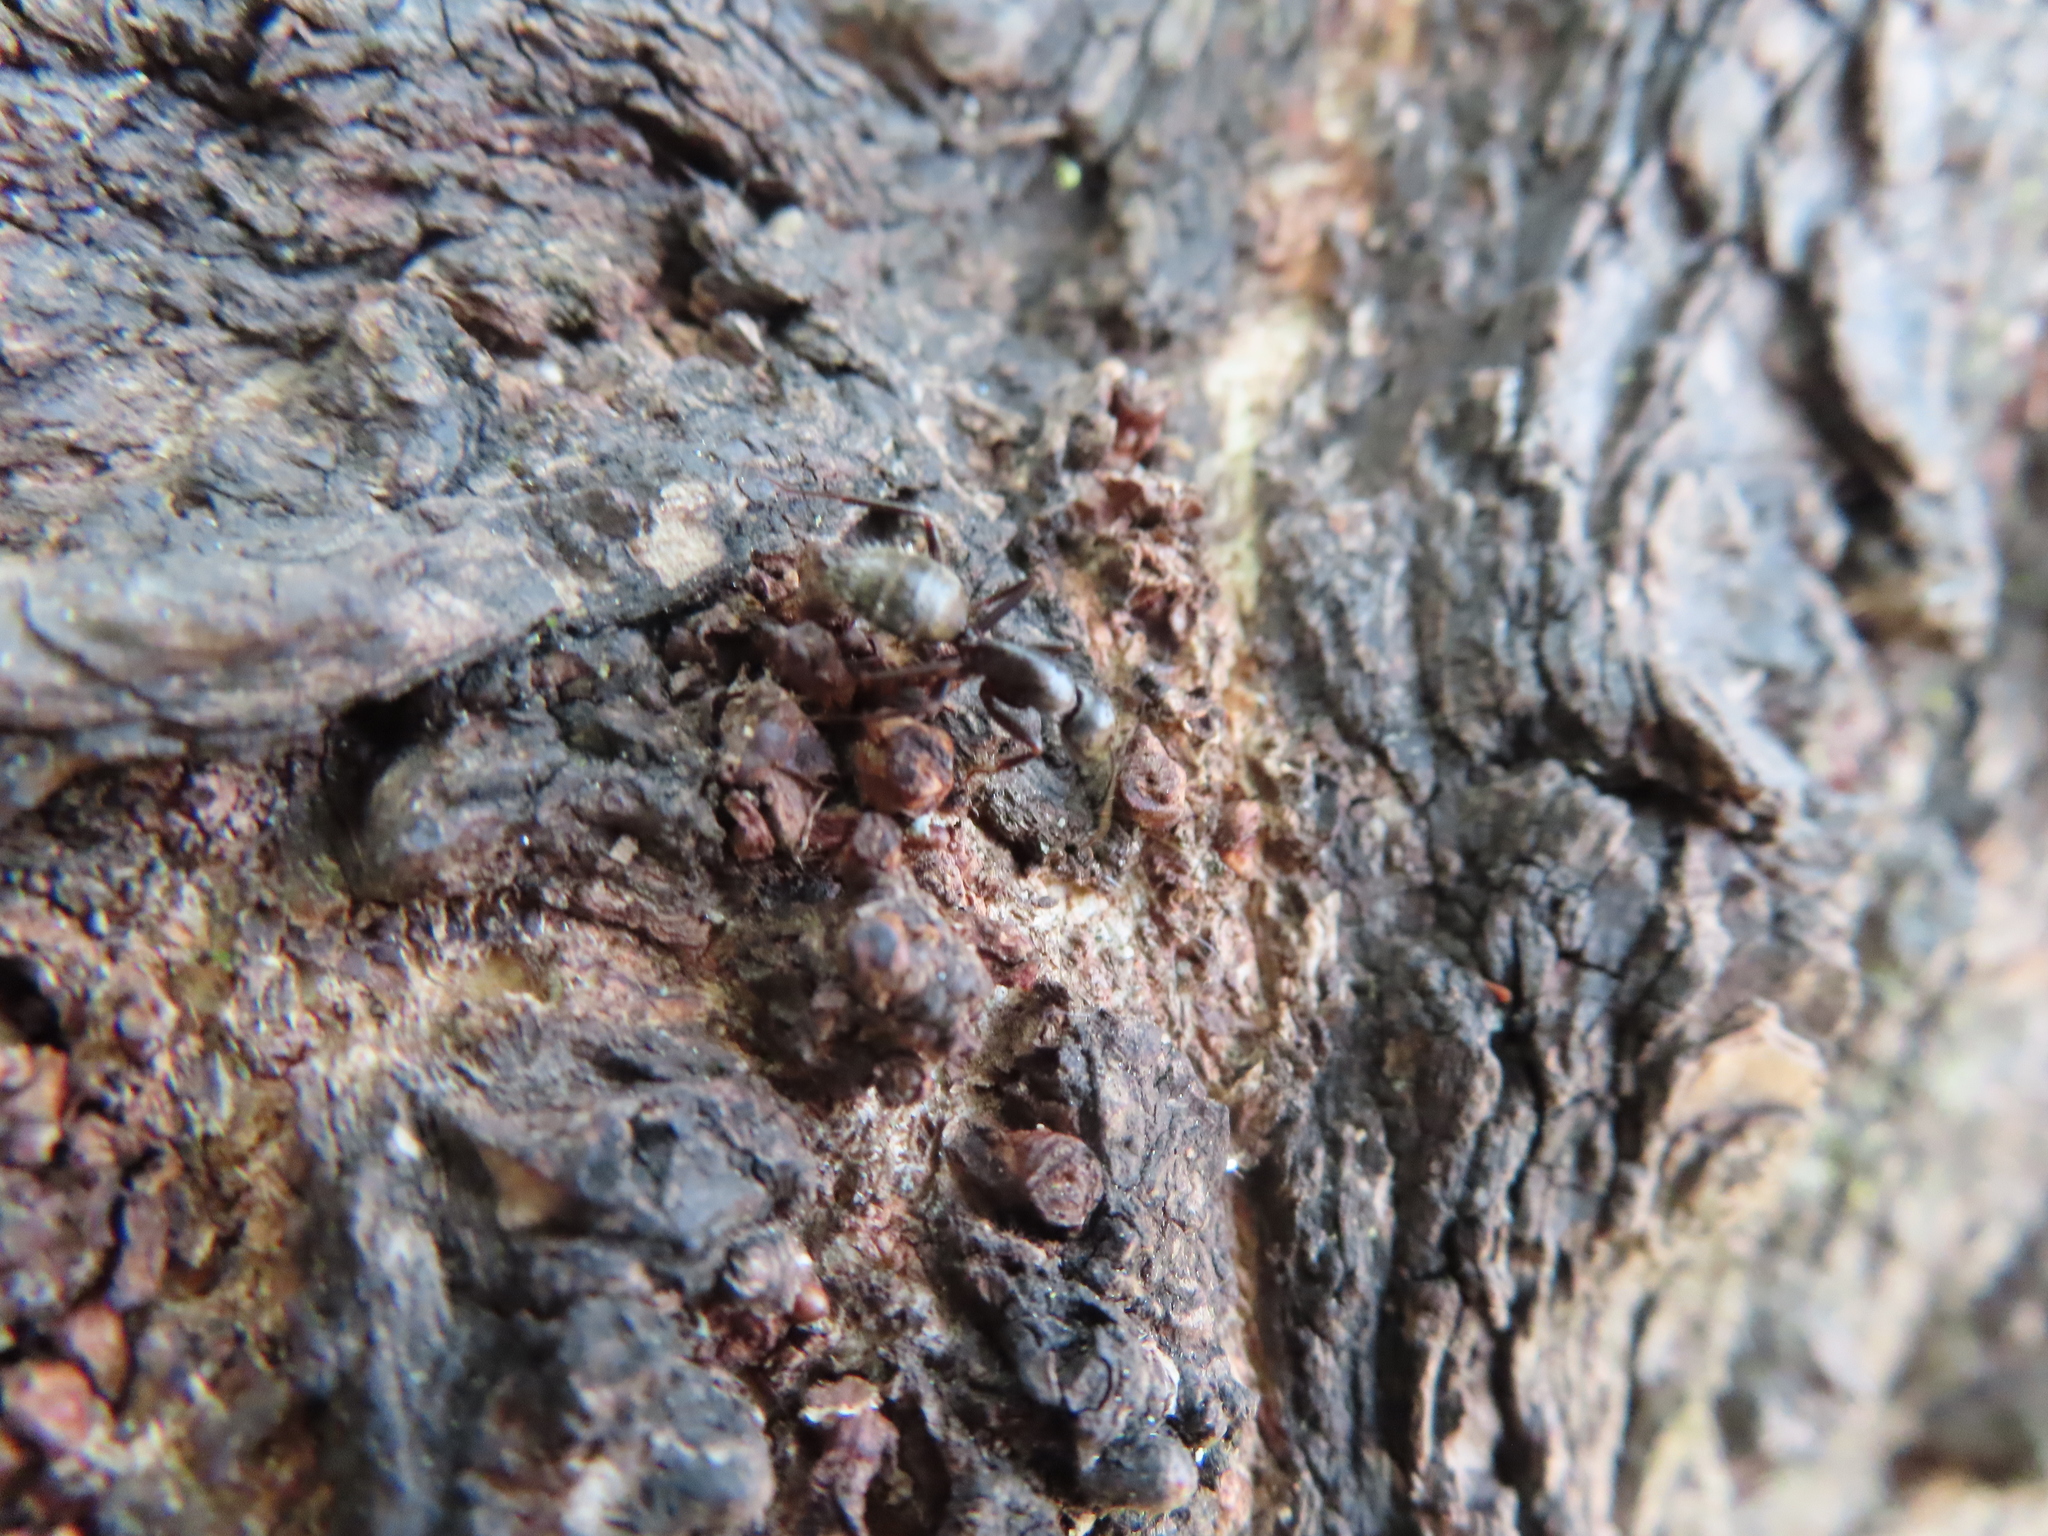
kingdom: Animalia
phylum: Arthropoda
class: Insecta
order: Hymenoptera
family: Formicidae
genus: Camponotus
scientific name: Camponotus pennsylvanicus
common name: Black carpenter ant
